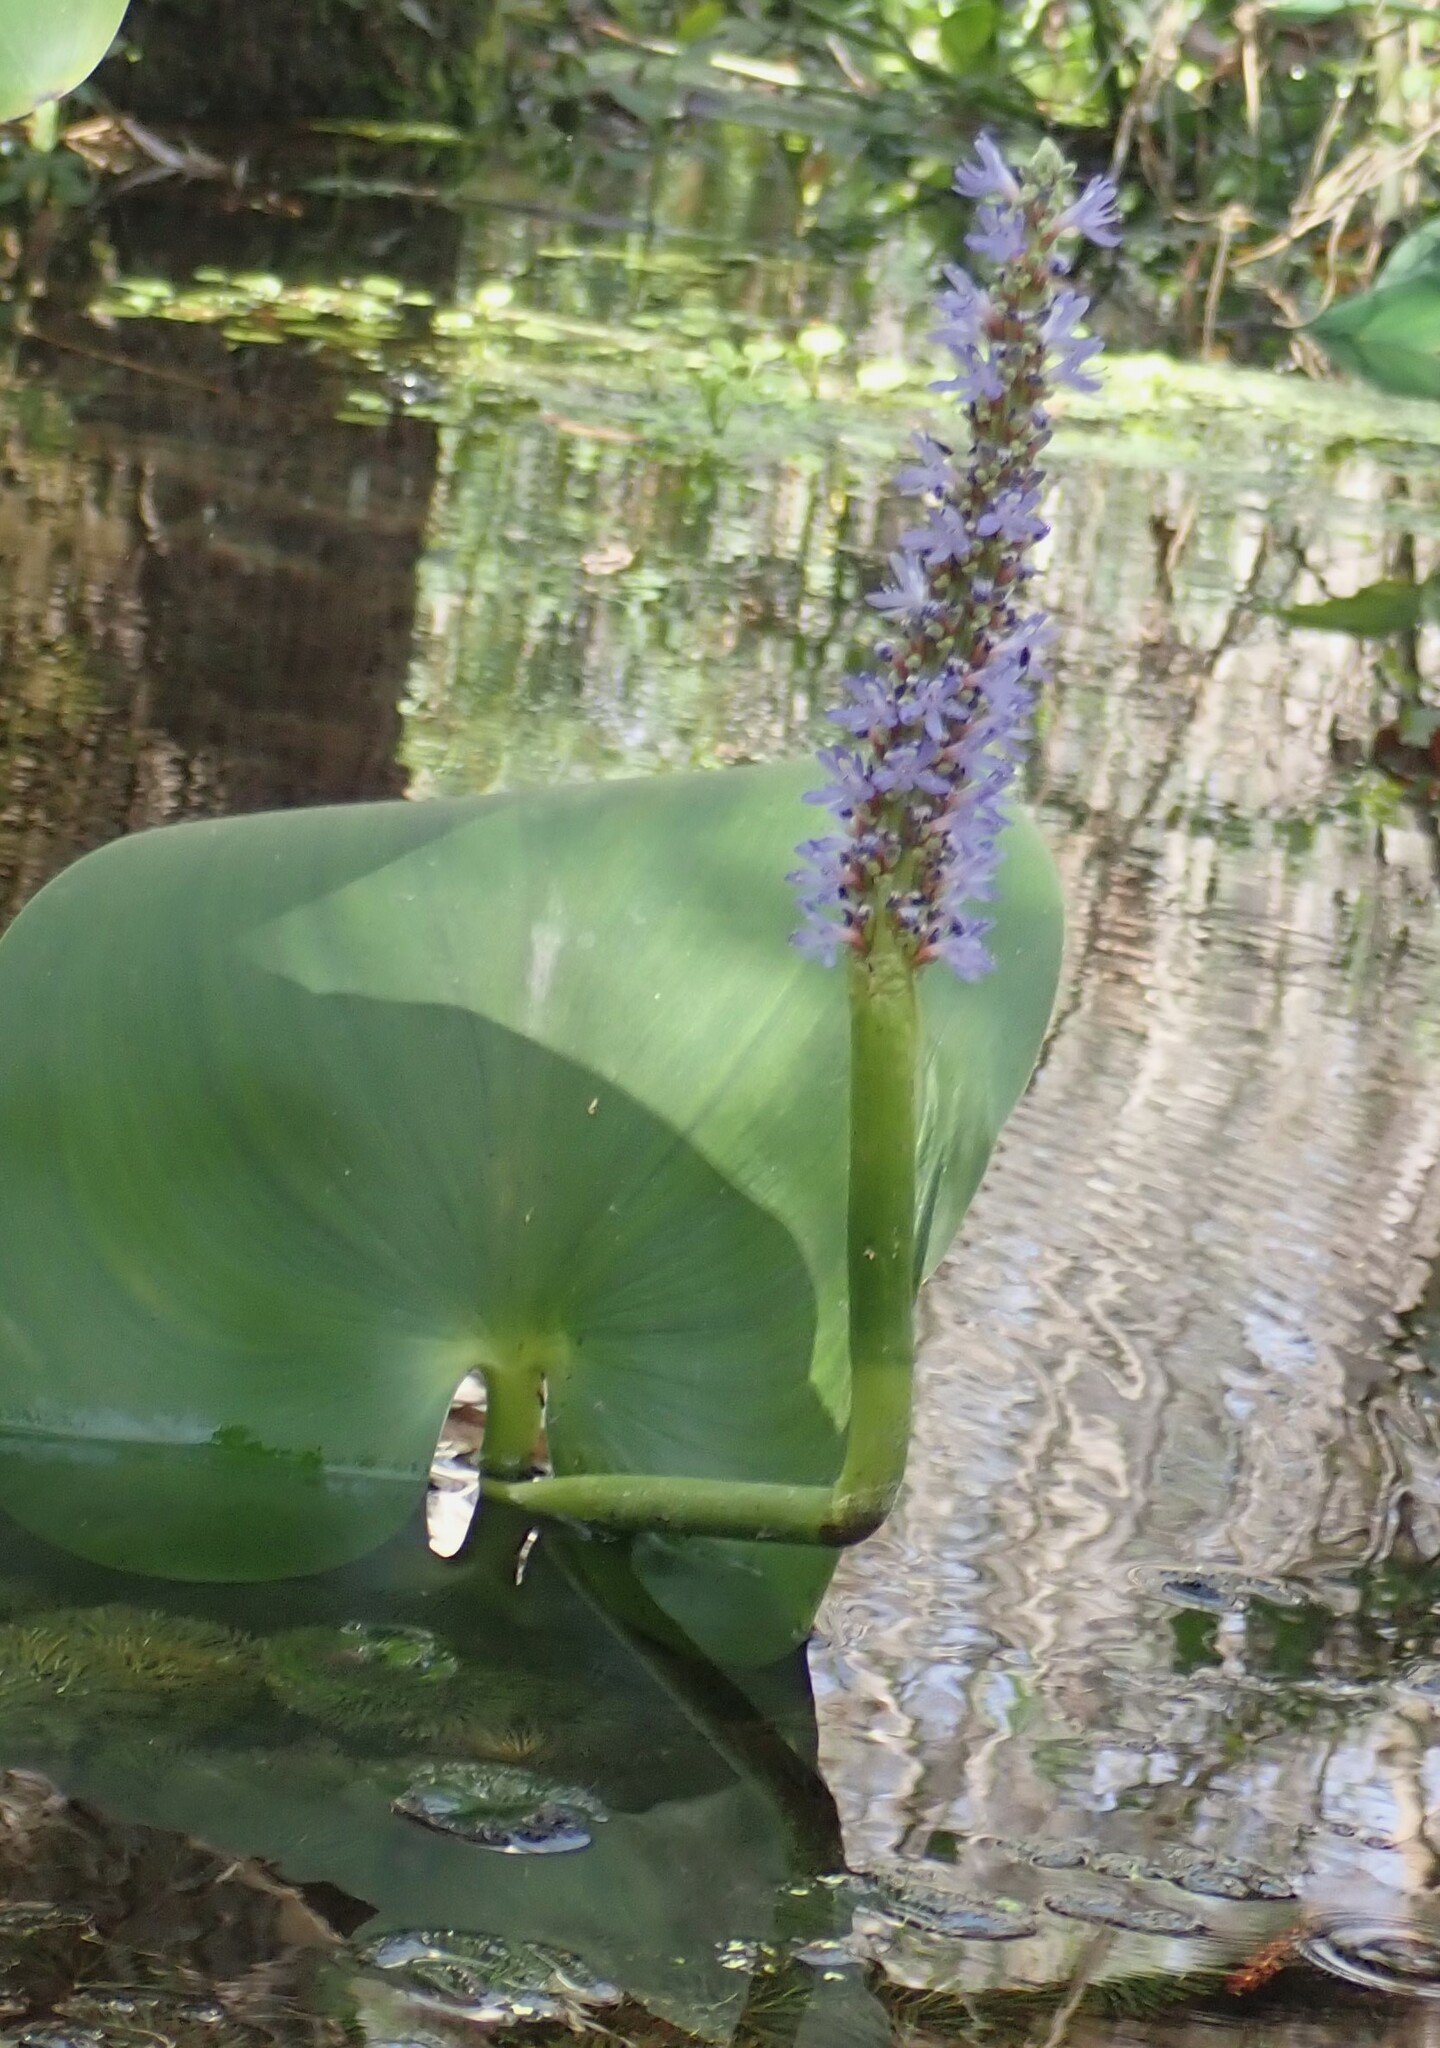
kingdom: Plantae
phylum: Tracheophyta
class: Liliopsida
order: Commelinales
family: Pontederiaceae
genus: Pontederia
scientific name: Pontederia cordata
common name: Pickerelweed
